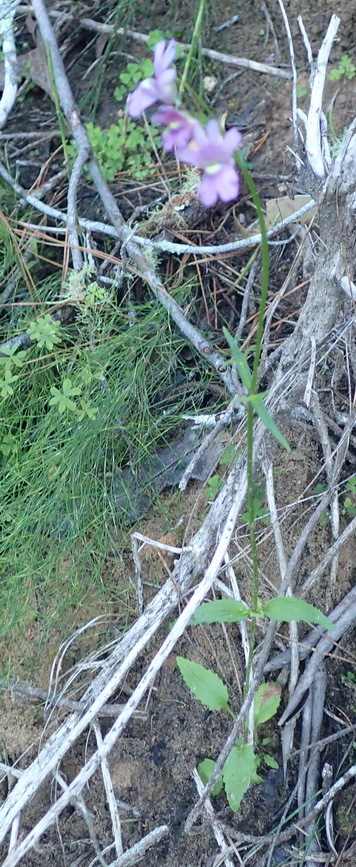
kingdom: Plantae
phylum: Tracheophyta
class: Magnoliopsida
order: Lamiales
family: Scrophulariaceae
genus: Nemesia
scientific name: Nemesia affinis
